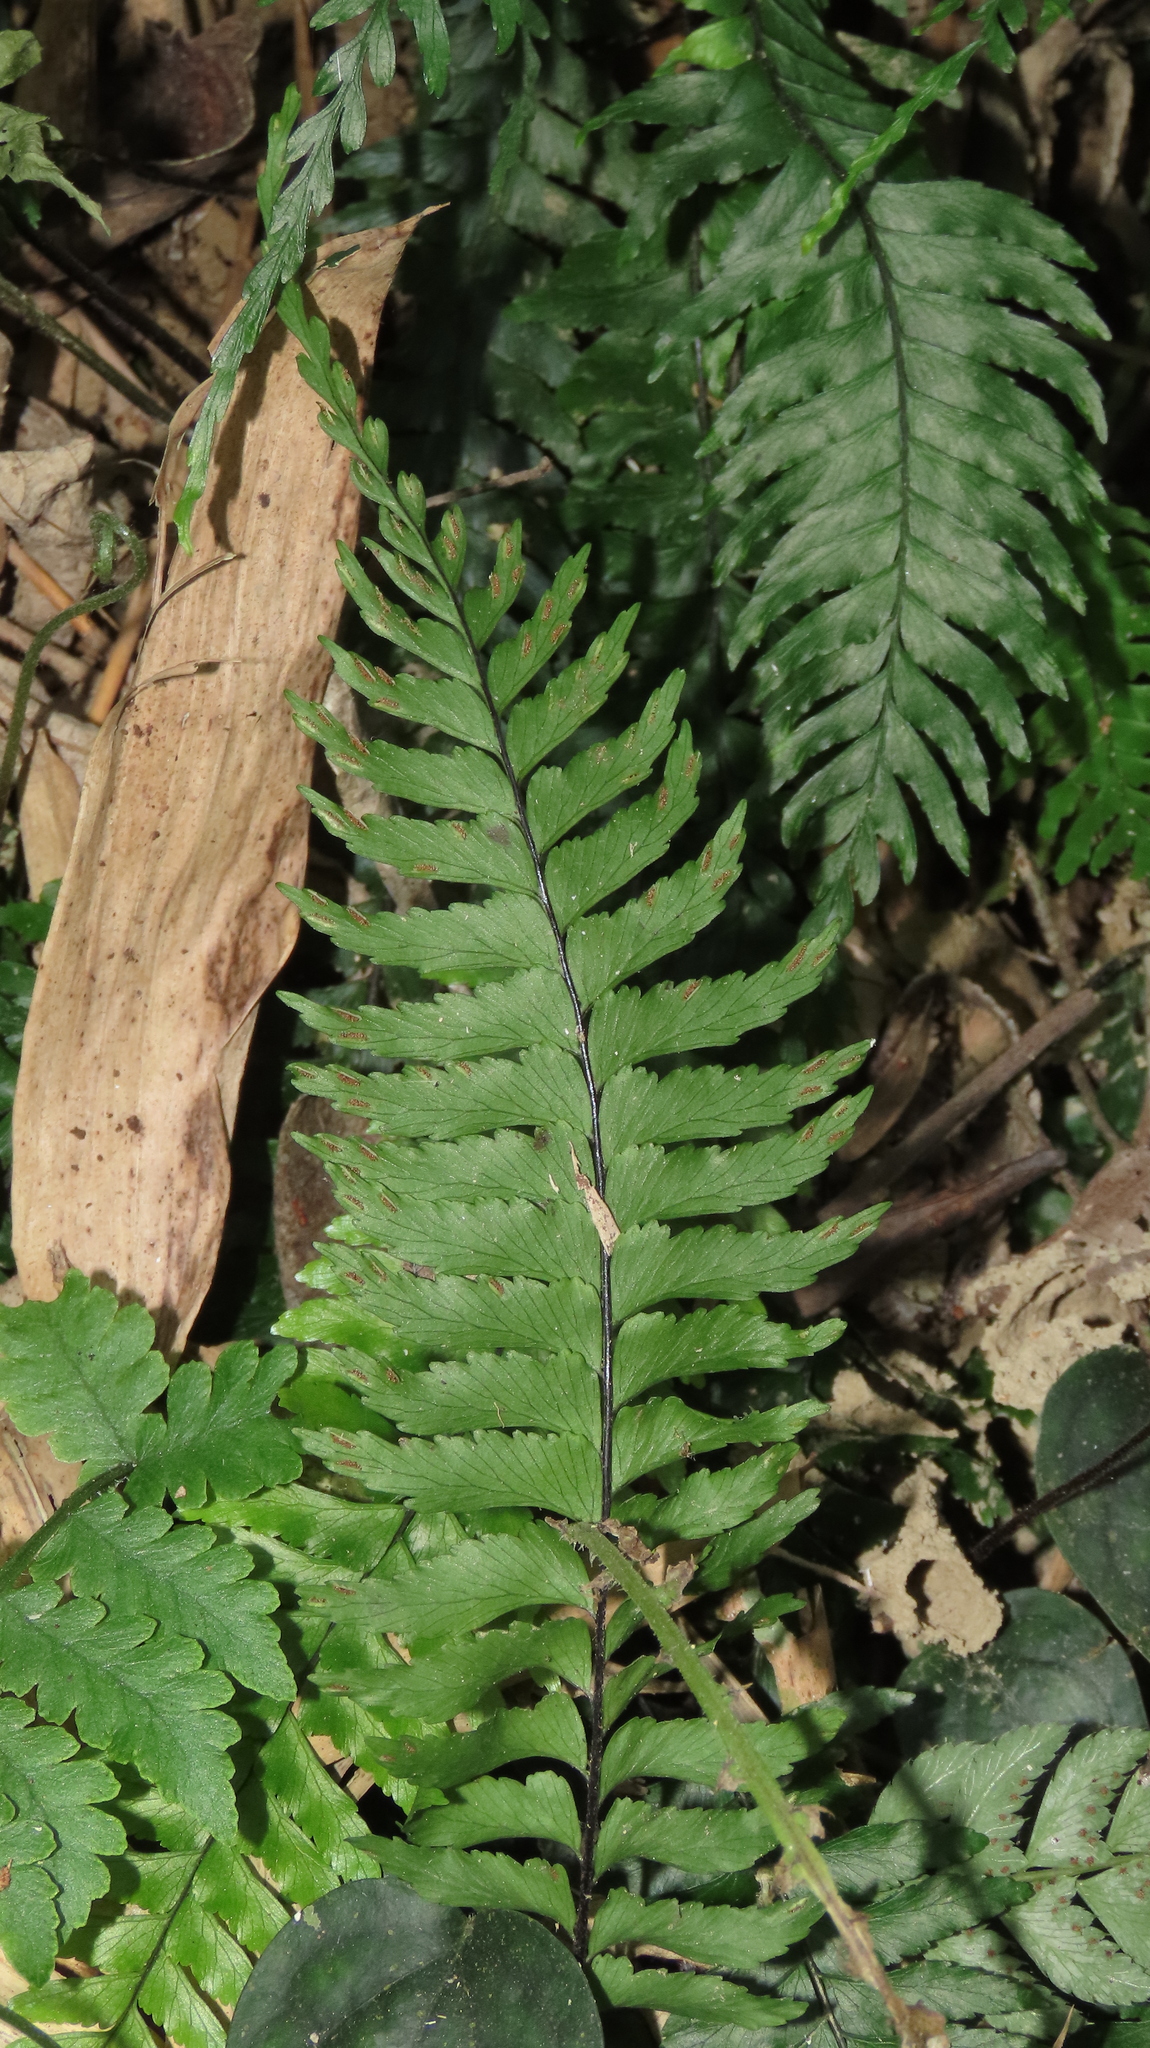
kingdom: Plantae
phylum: Tracheophyta
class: Polypodiopsida
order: Polypodiales
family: Aspleniaceae
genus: Hymenasplenium
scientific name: Hymenasplenium pubirhizoma
